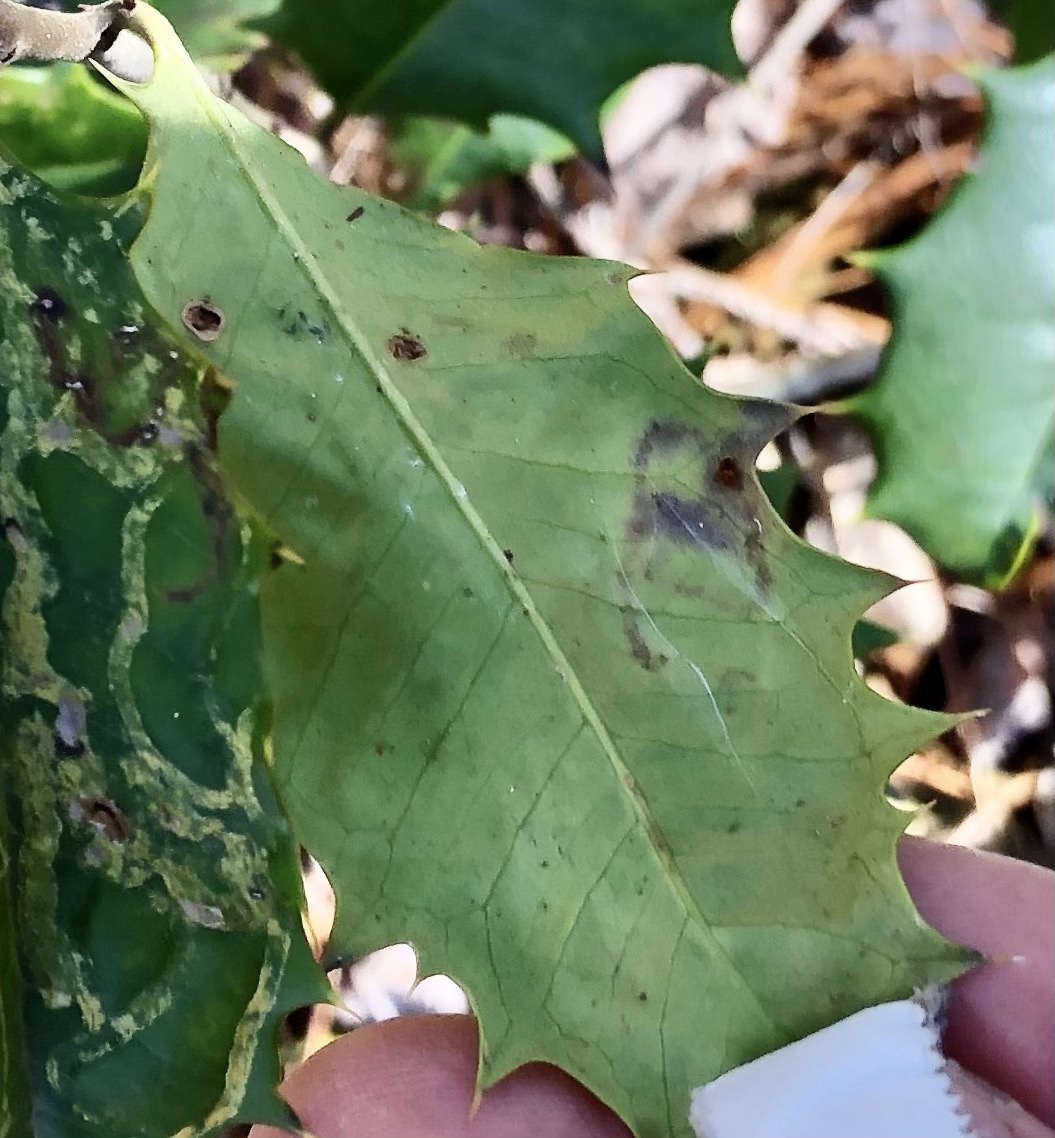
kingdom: Animalia
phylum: Arthropoda
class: Insecta
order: Diptera
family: Agromyzidae
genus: Phytomyza
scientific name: Phytomyza opacae
